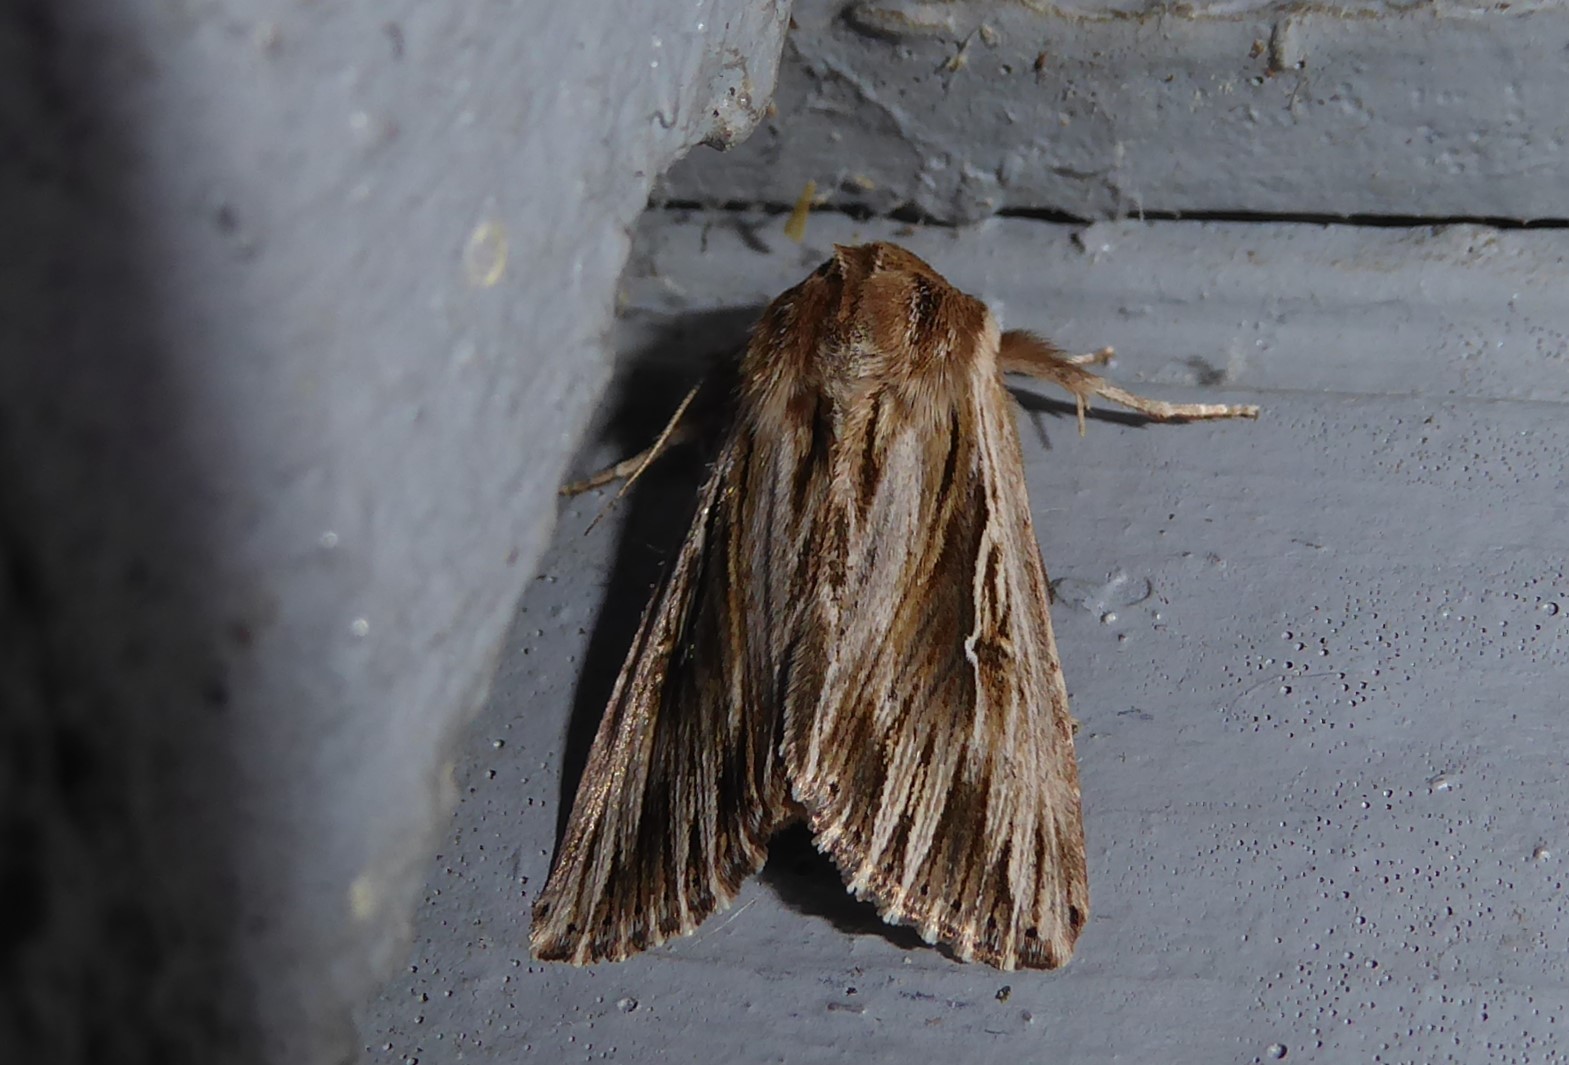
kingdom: Animalia
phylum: Arthropoda
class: Insecta
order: Lepidoptera
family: Noctuidae
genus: Persectania
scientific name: Persectania aversa
